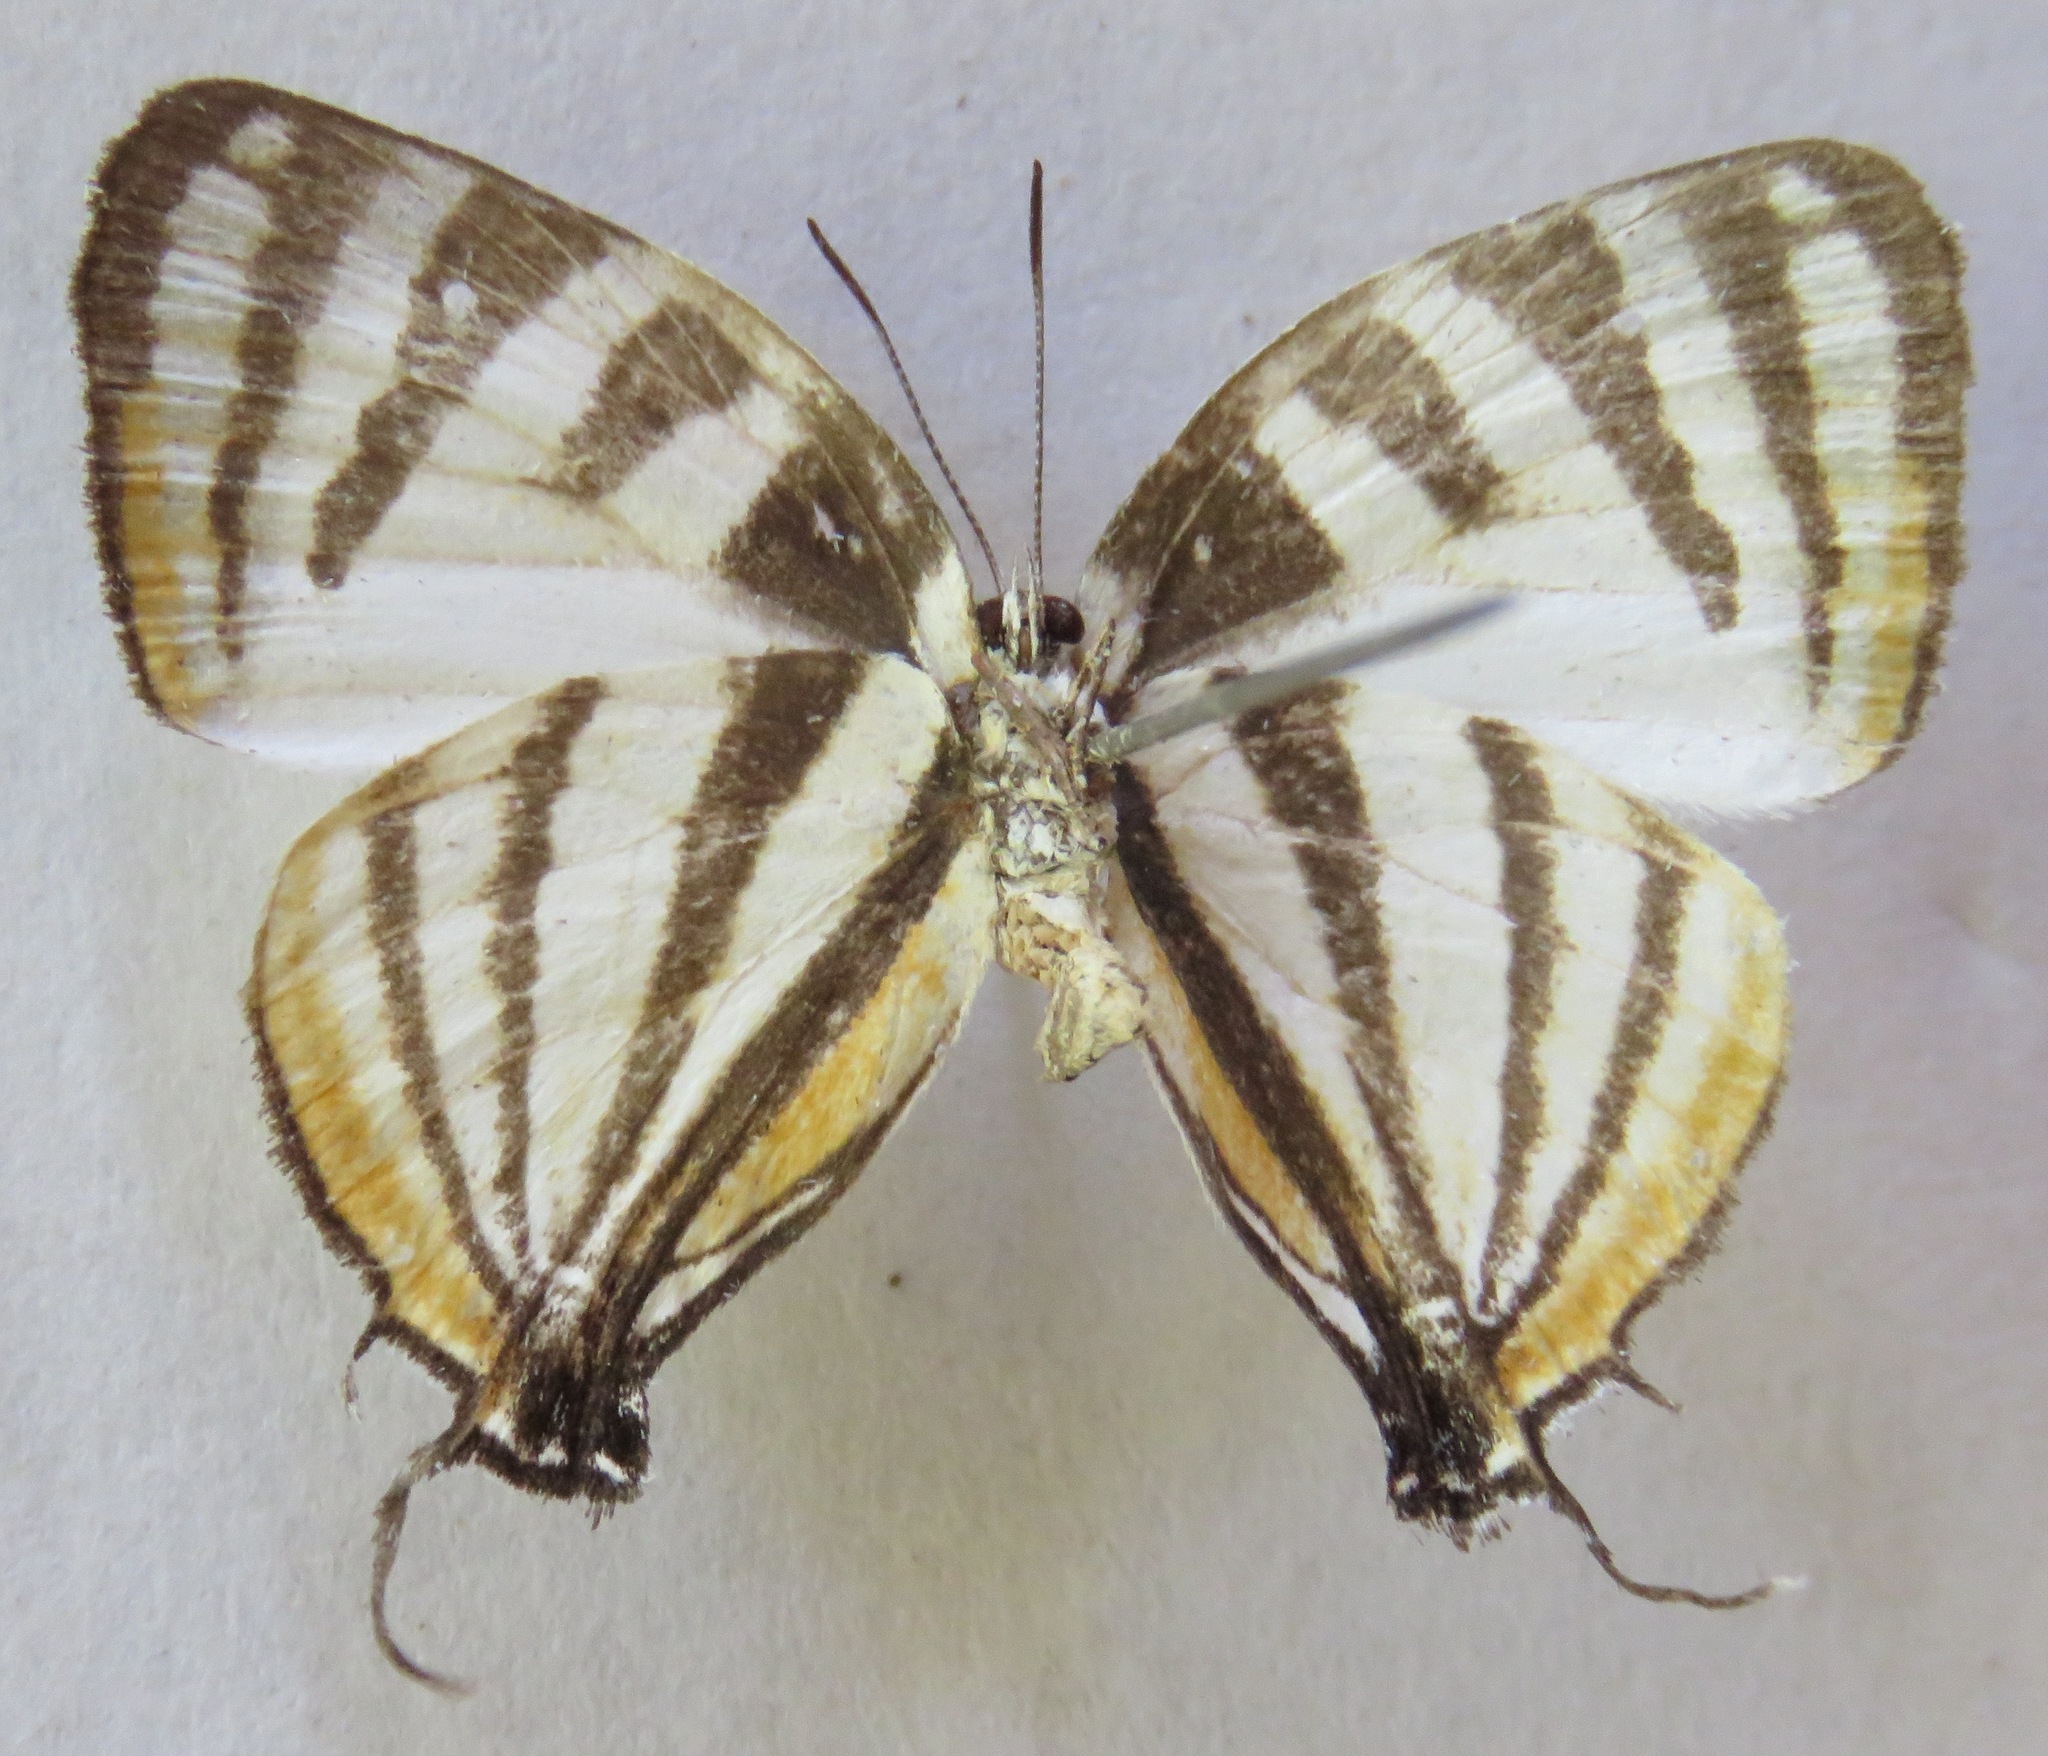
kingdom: Animalia
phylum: Arthropoda
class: Insecta
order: Lepidoptera
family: Lycaenidae
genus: Arawacus
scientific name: Arawacus togarna
